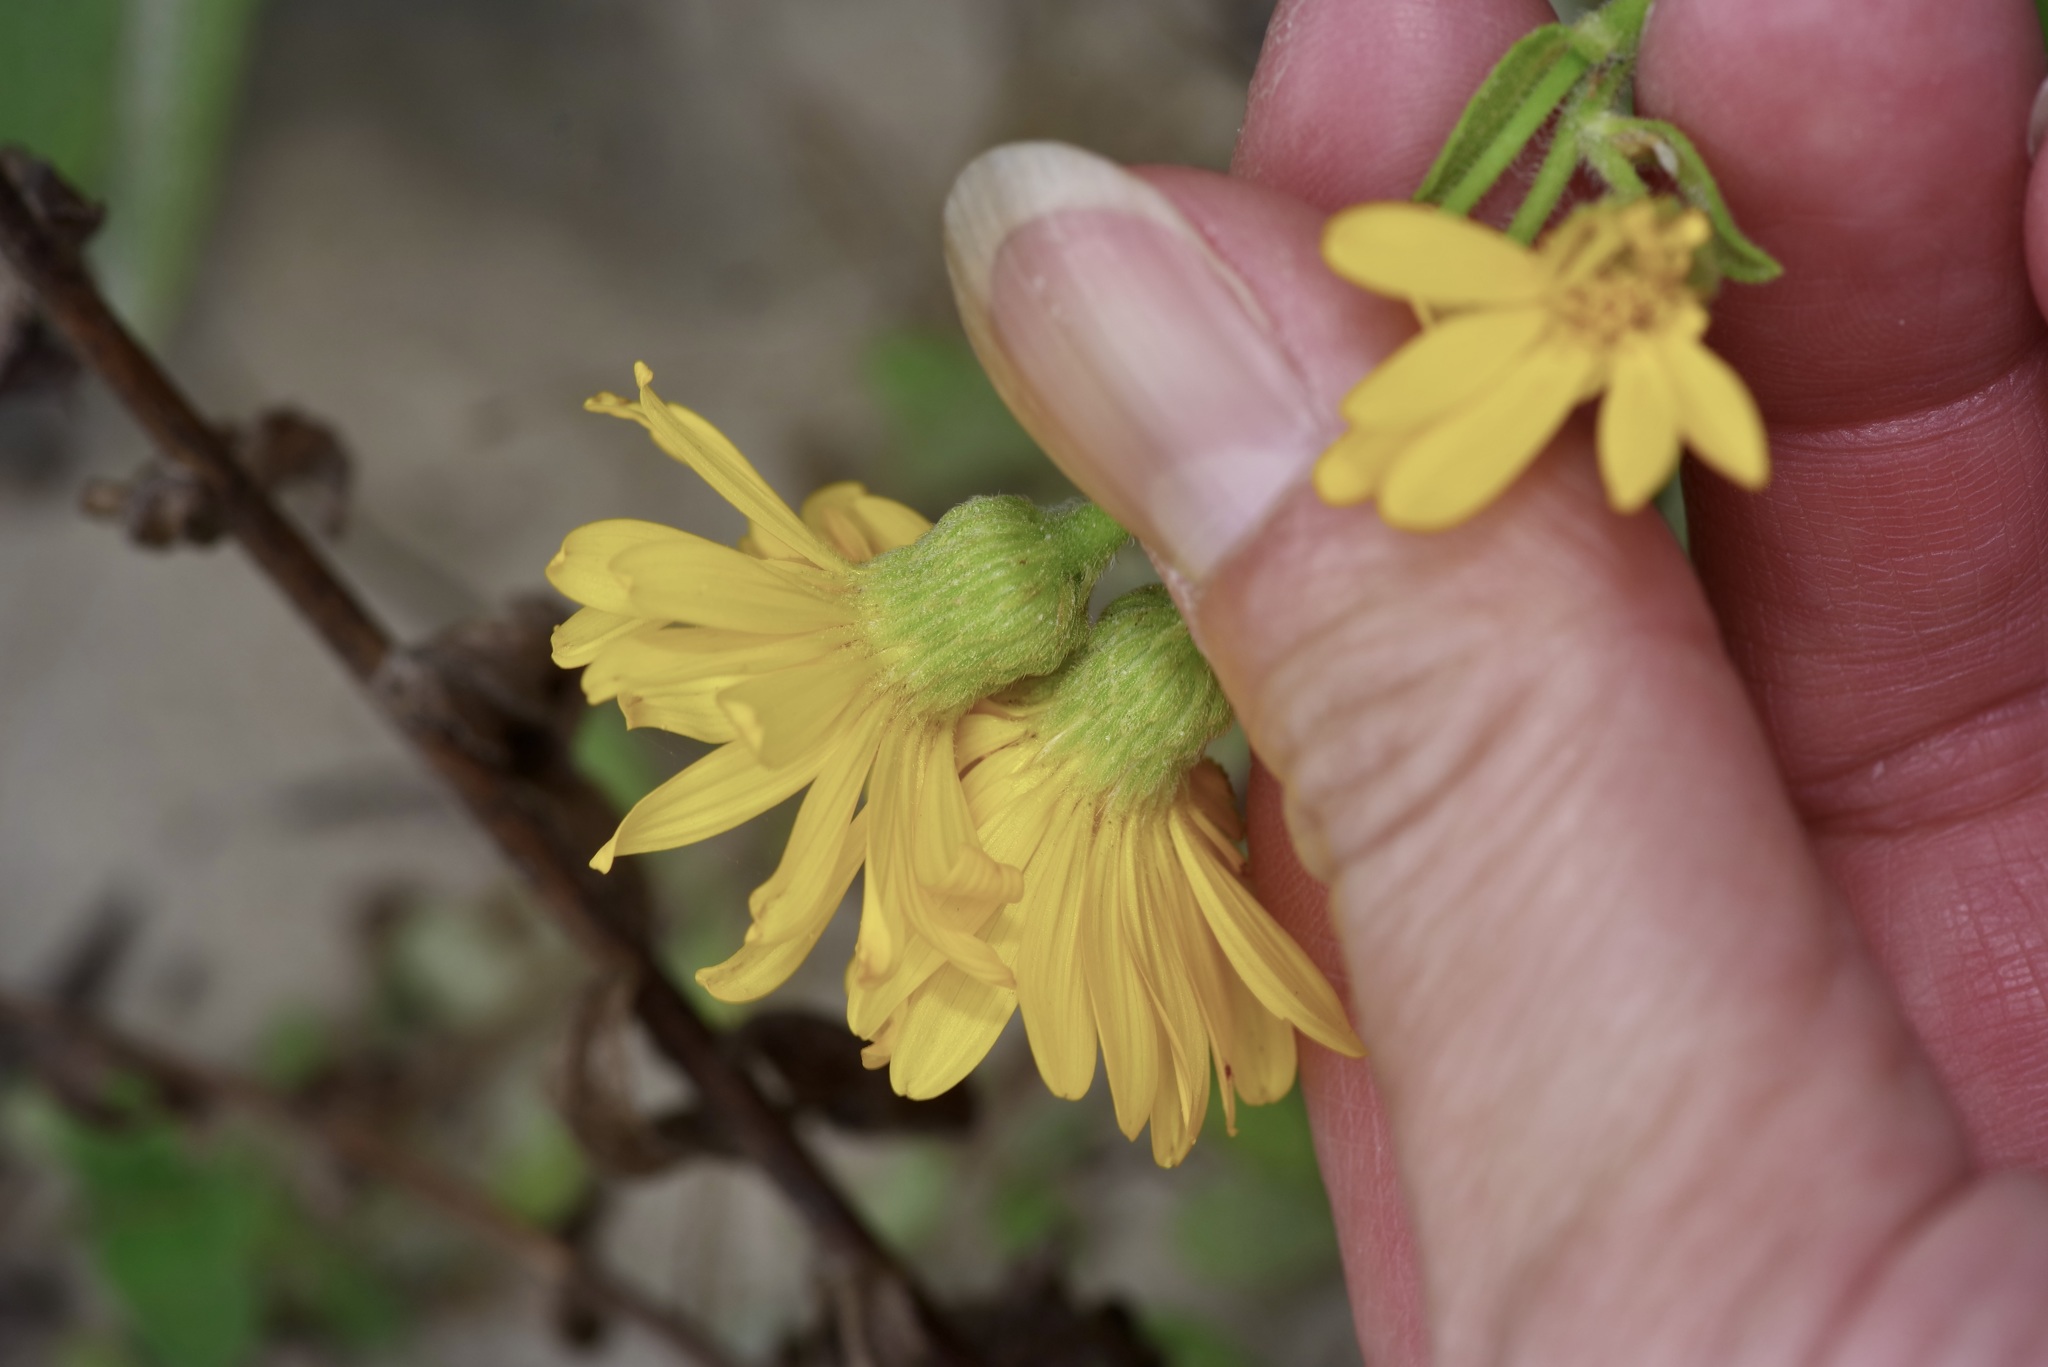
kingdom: Plantae
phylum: Tracheophyta
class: Magnoliopsida
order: Asterales
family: Asteraceae
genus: Heterotheca
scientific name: Heterotheca subaxillaris
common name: Camphorweed
